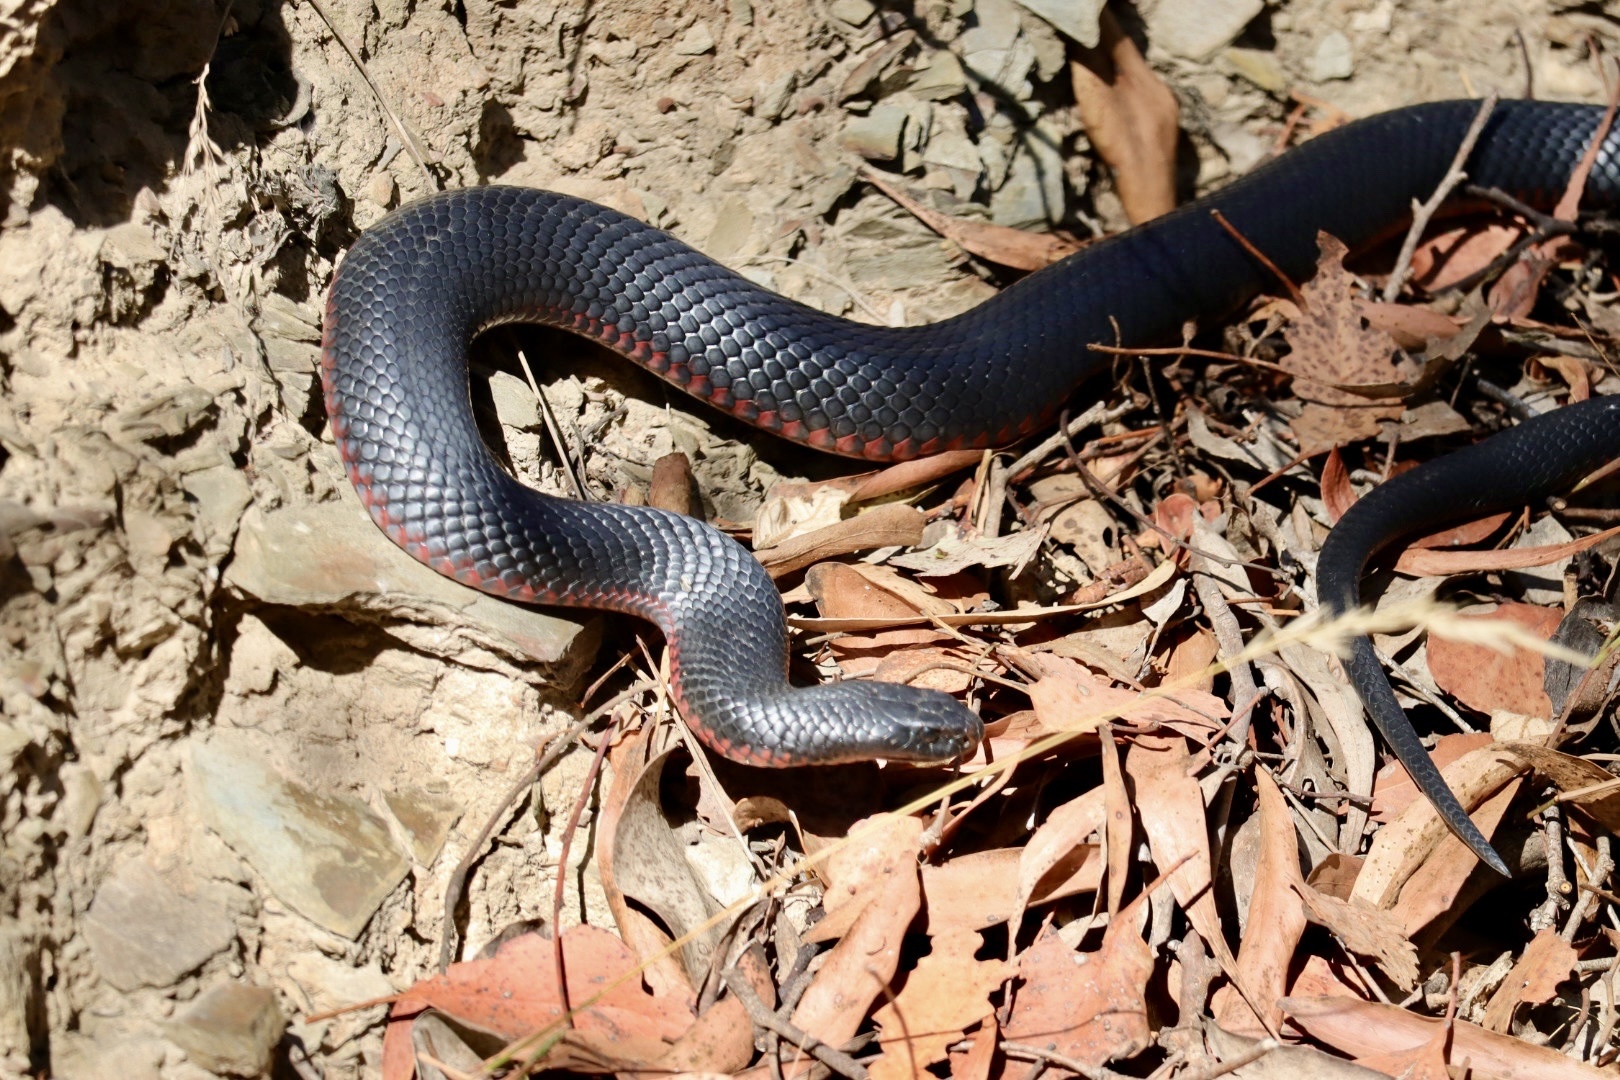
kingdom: Animalia
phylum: Chordata
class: Squamata
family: Elapidae
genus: Pseudechis
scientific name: Pseudechis porphyriacus
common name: Australian black snake
